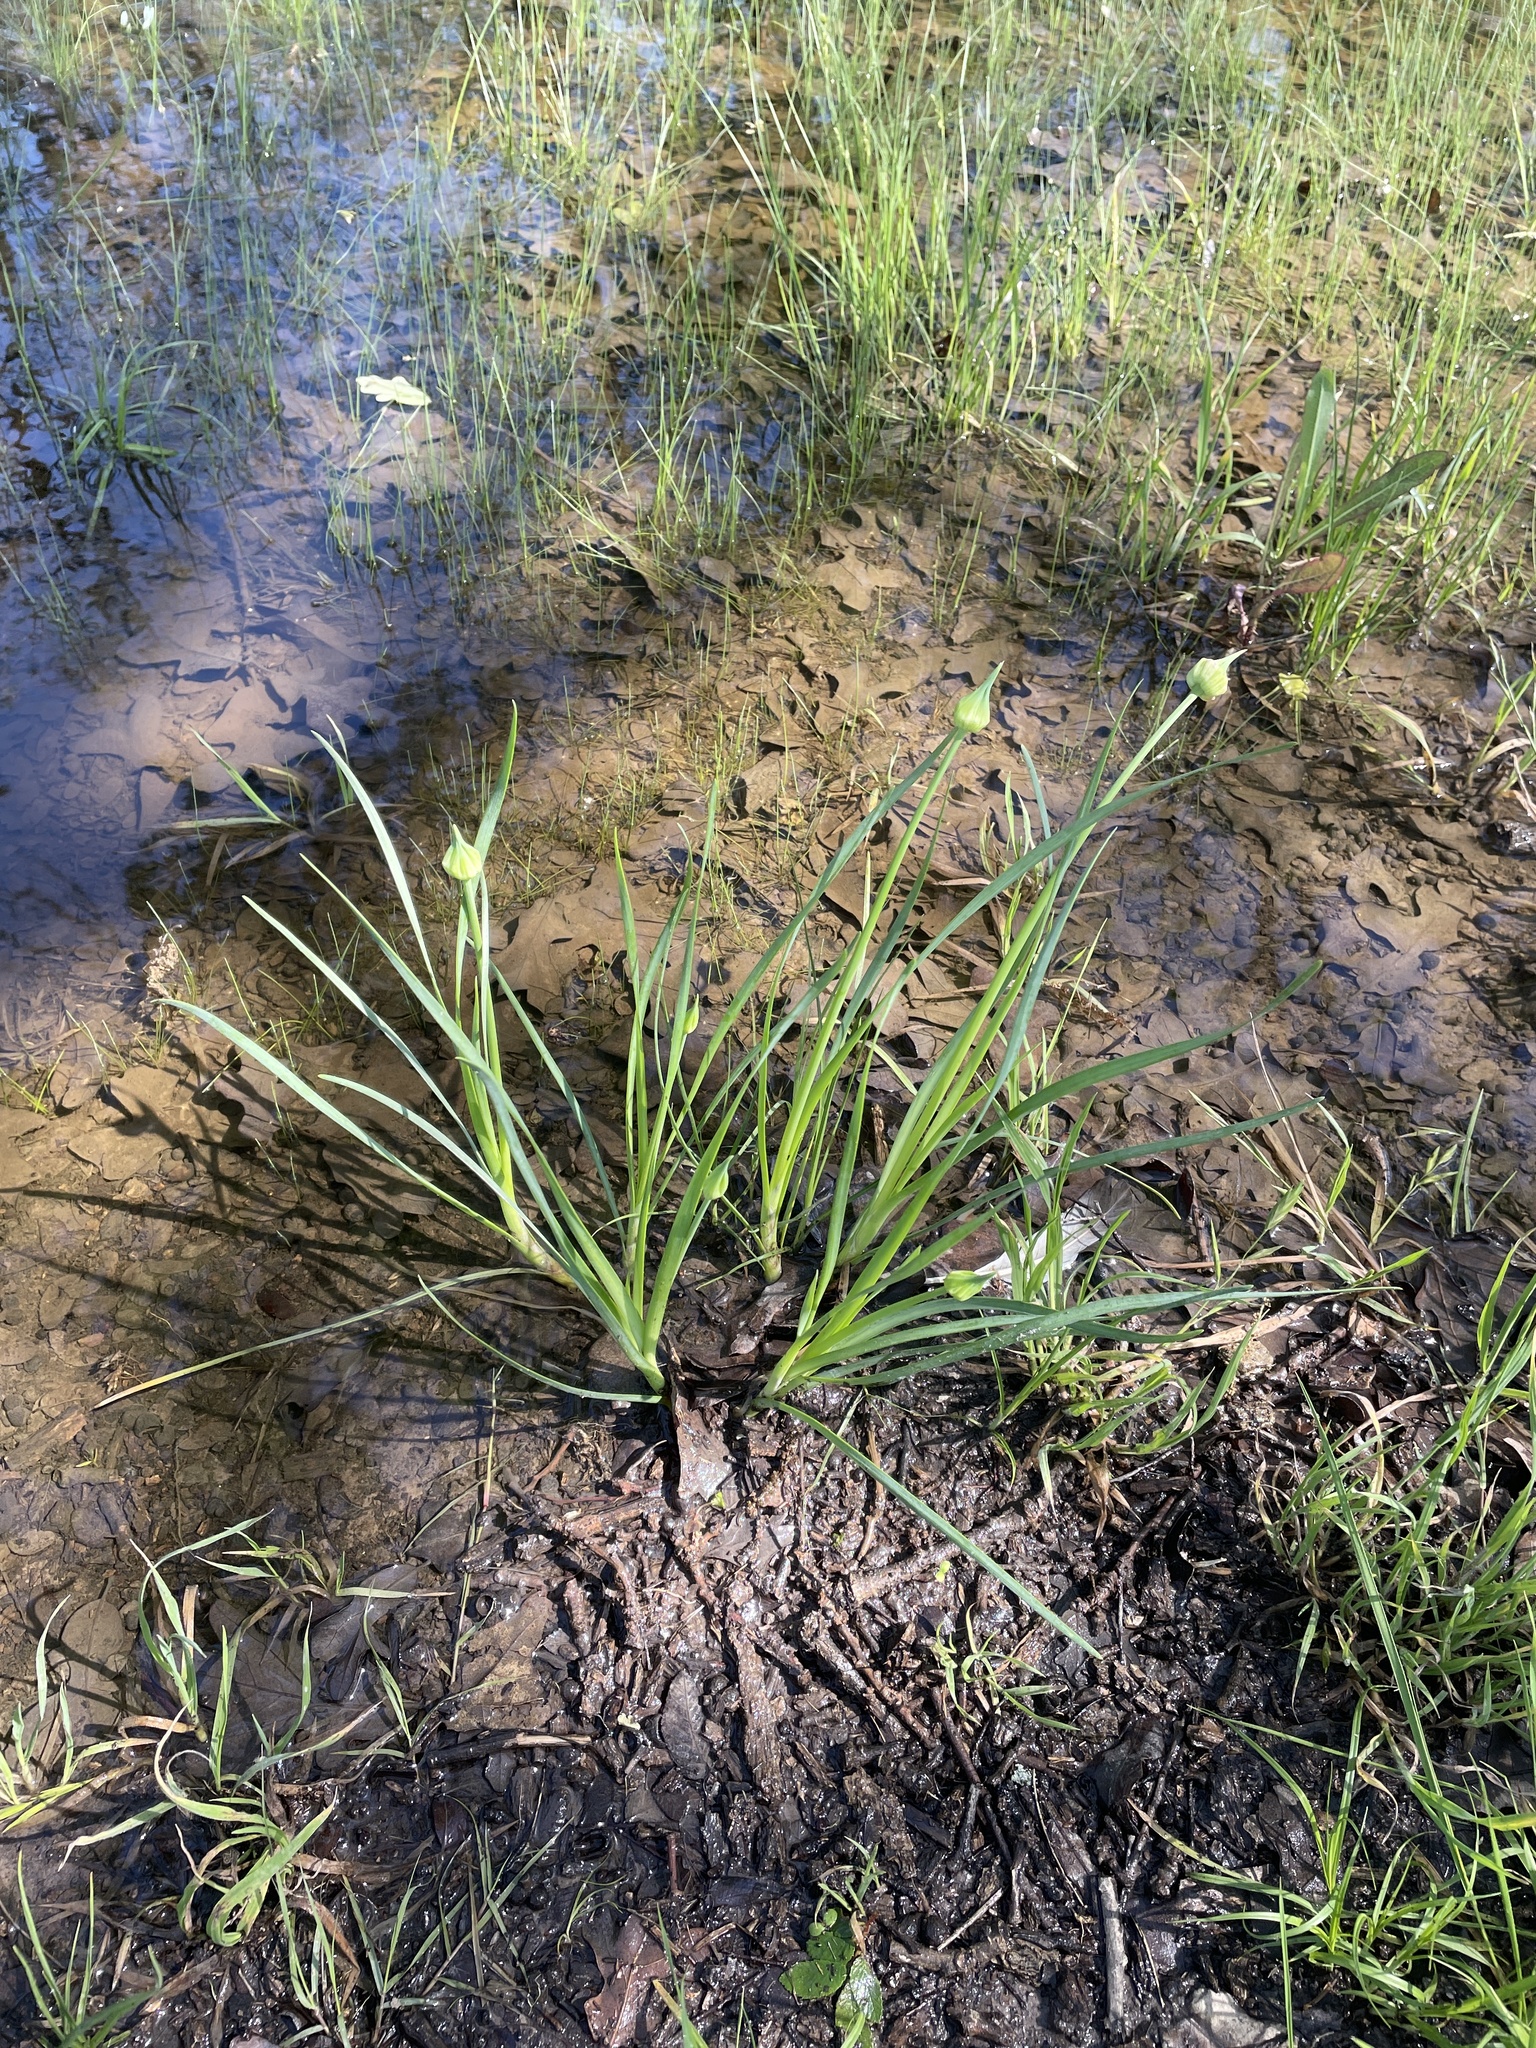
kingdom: Plantae
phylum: Tracheophyta
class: Liliopsida
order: Asparagales
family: Amaryllidaceae
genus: Allium
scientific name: Allium canadense
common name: Meadow garlic
